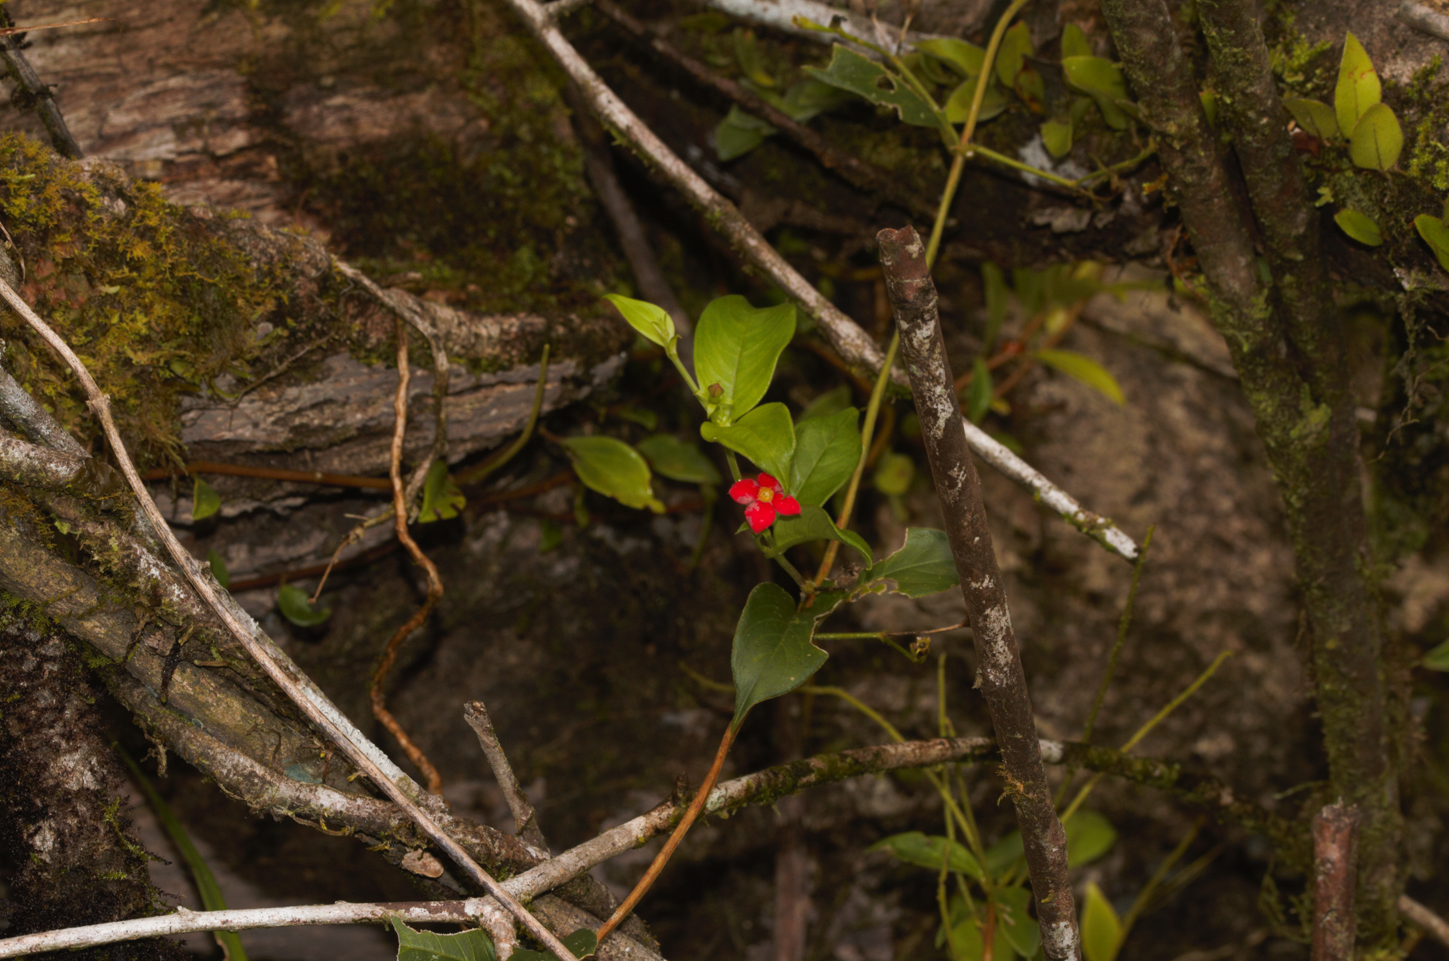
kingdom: Plantae
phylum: Tracheophyta
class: Magnoliopsida
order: Gentianales
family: Rubiaceae
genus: Manettia
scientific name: Manettia coccinea
